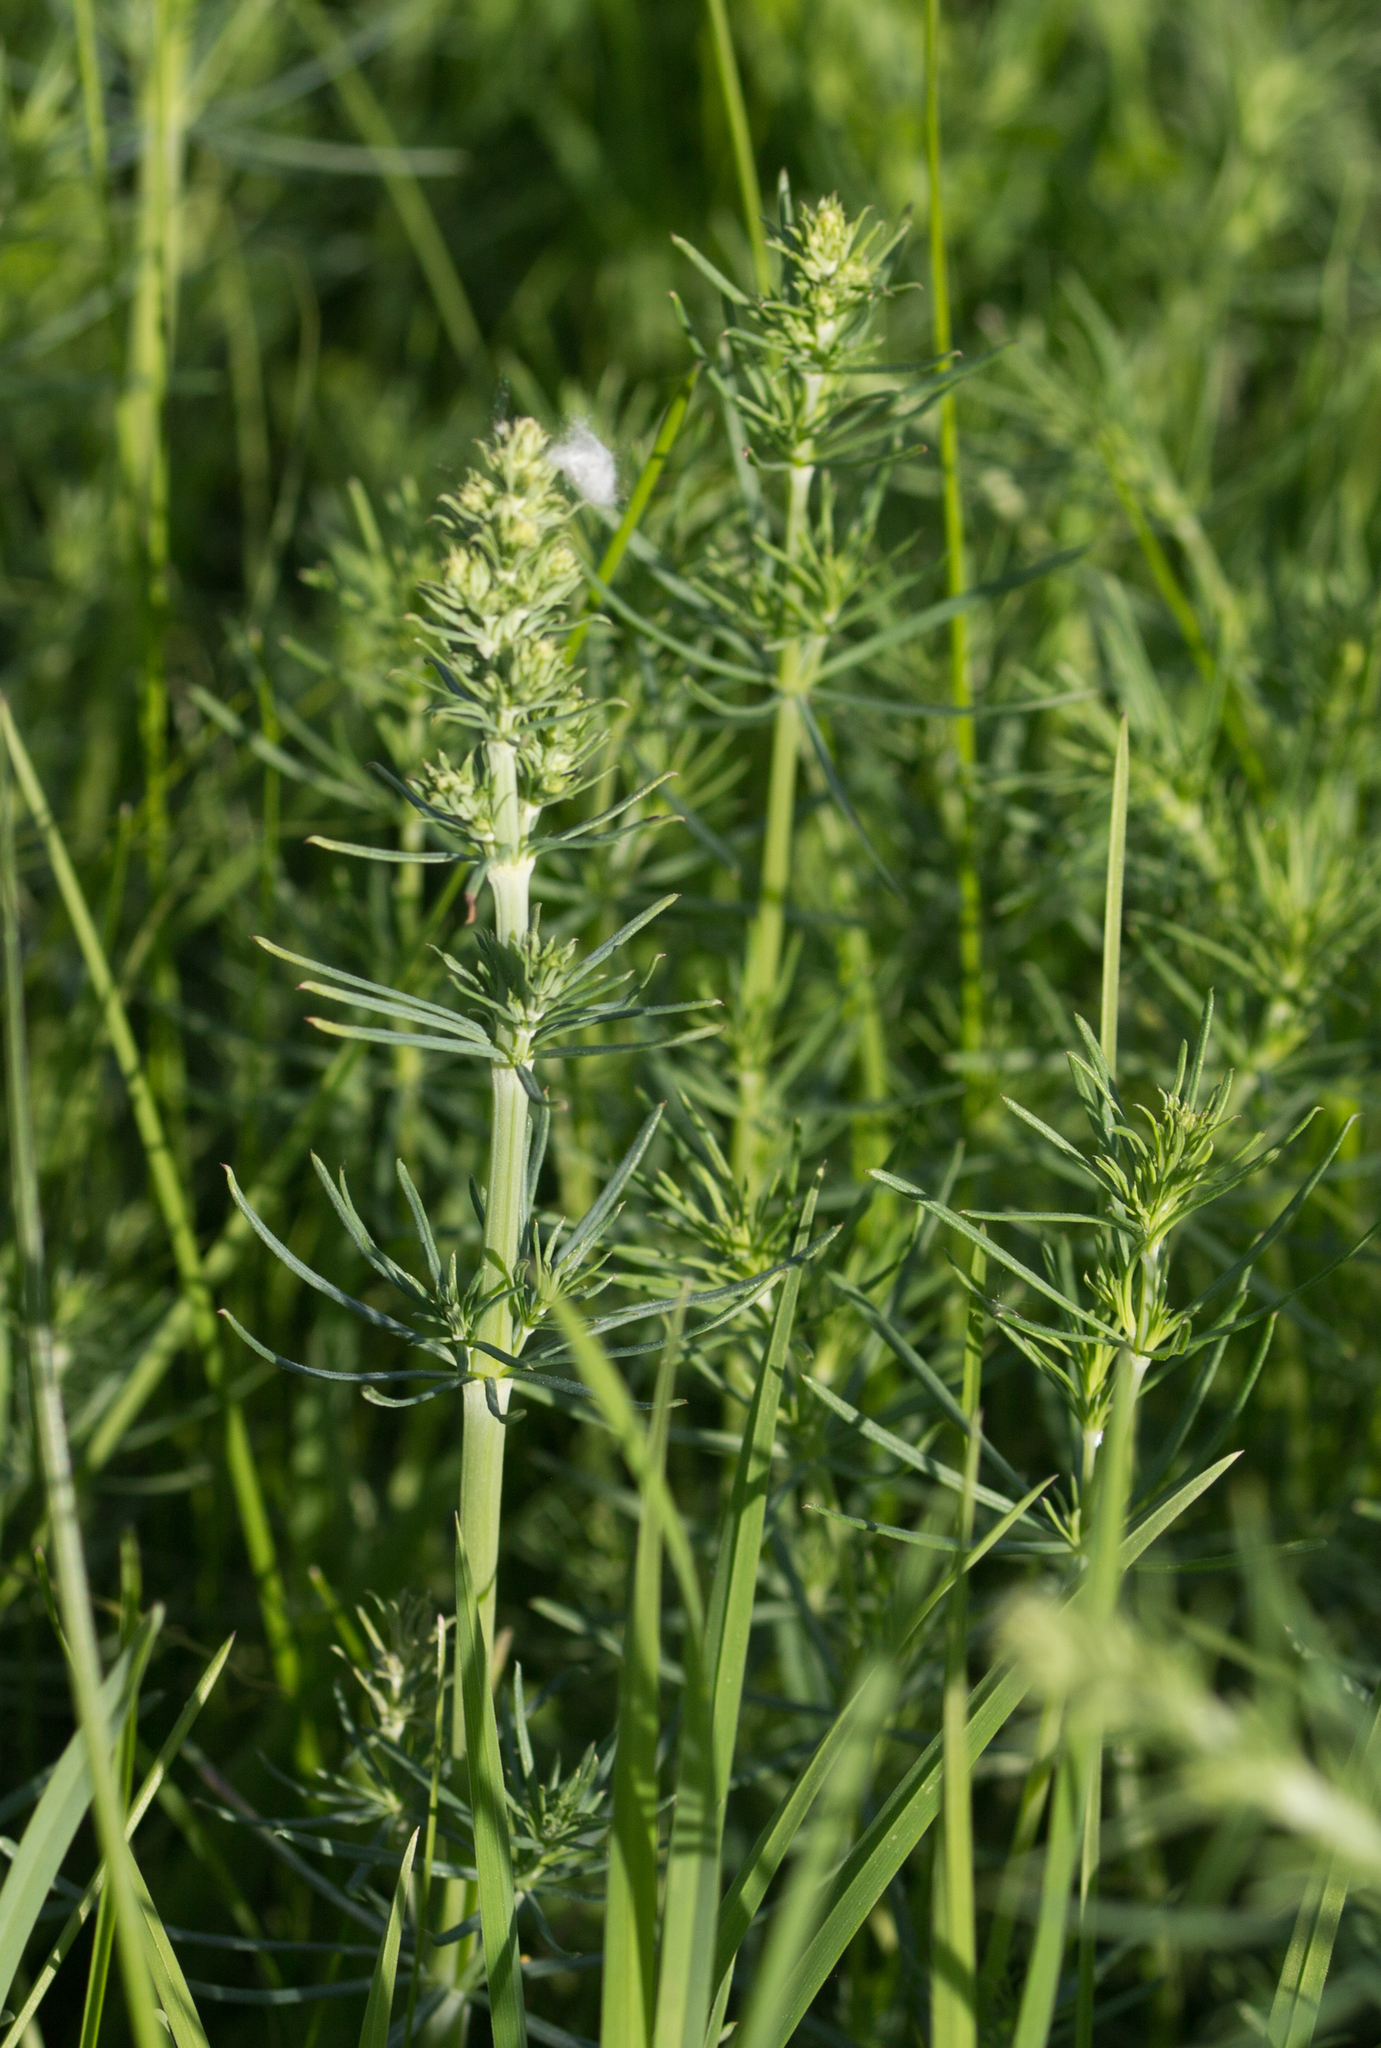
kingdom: Plantae
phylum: Tracheophyta
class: Magnoliopsida
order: Gentianales
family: Rubiaceae
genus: Galium
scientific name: Galium verum
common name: Lady's bedstraw
